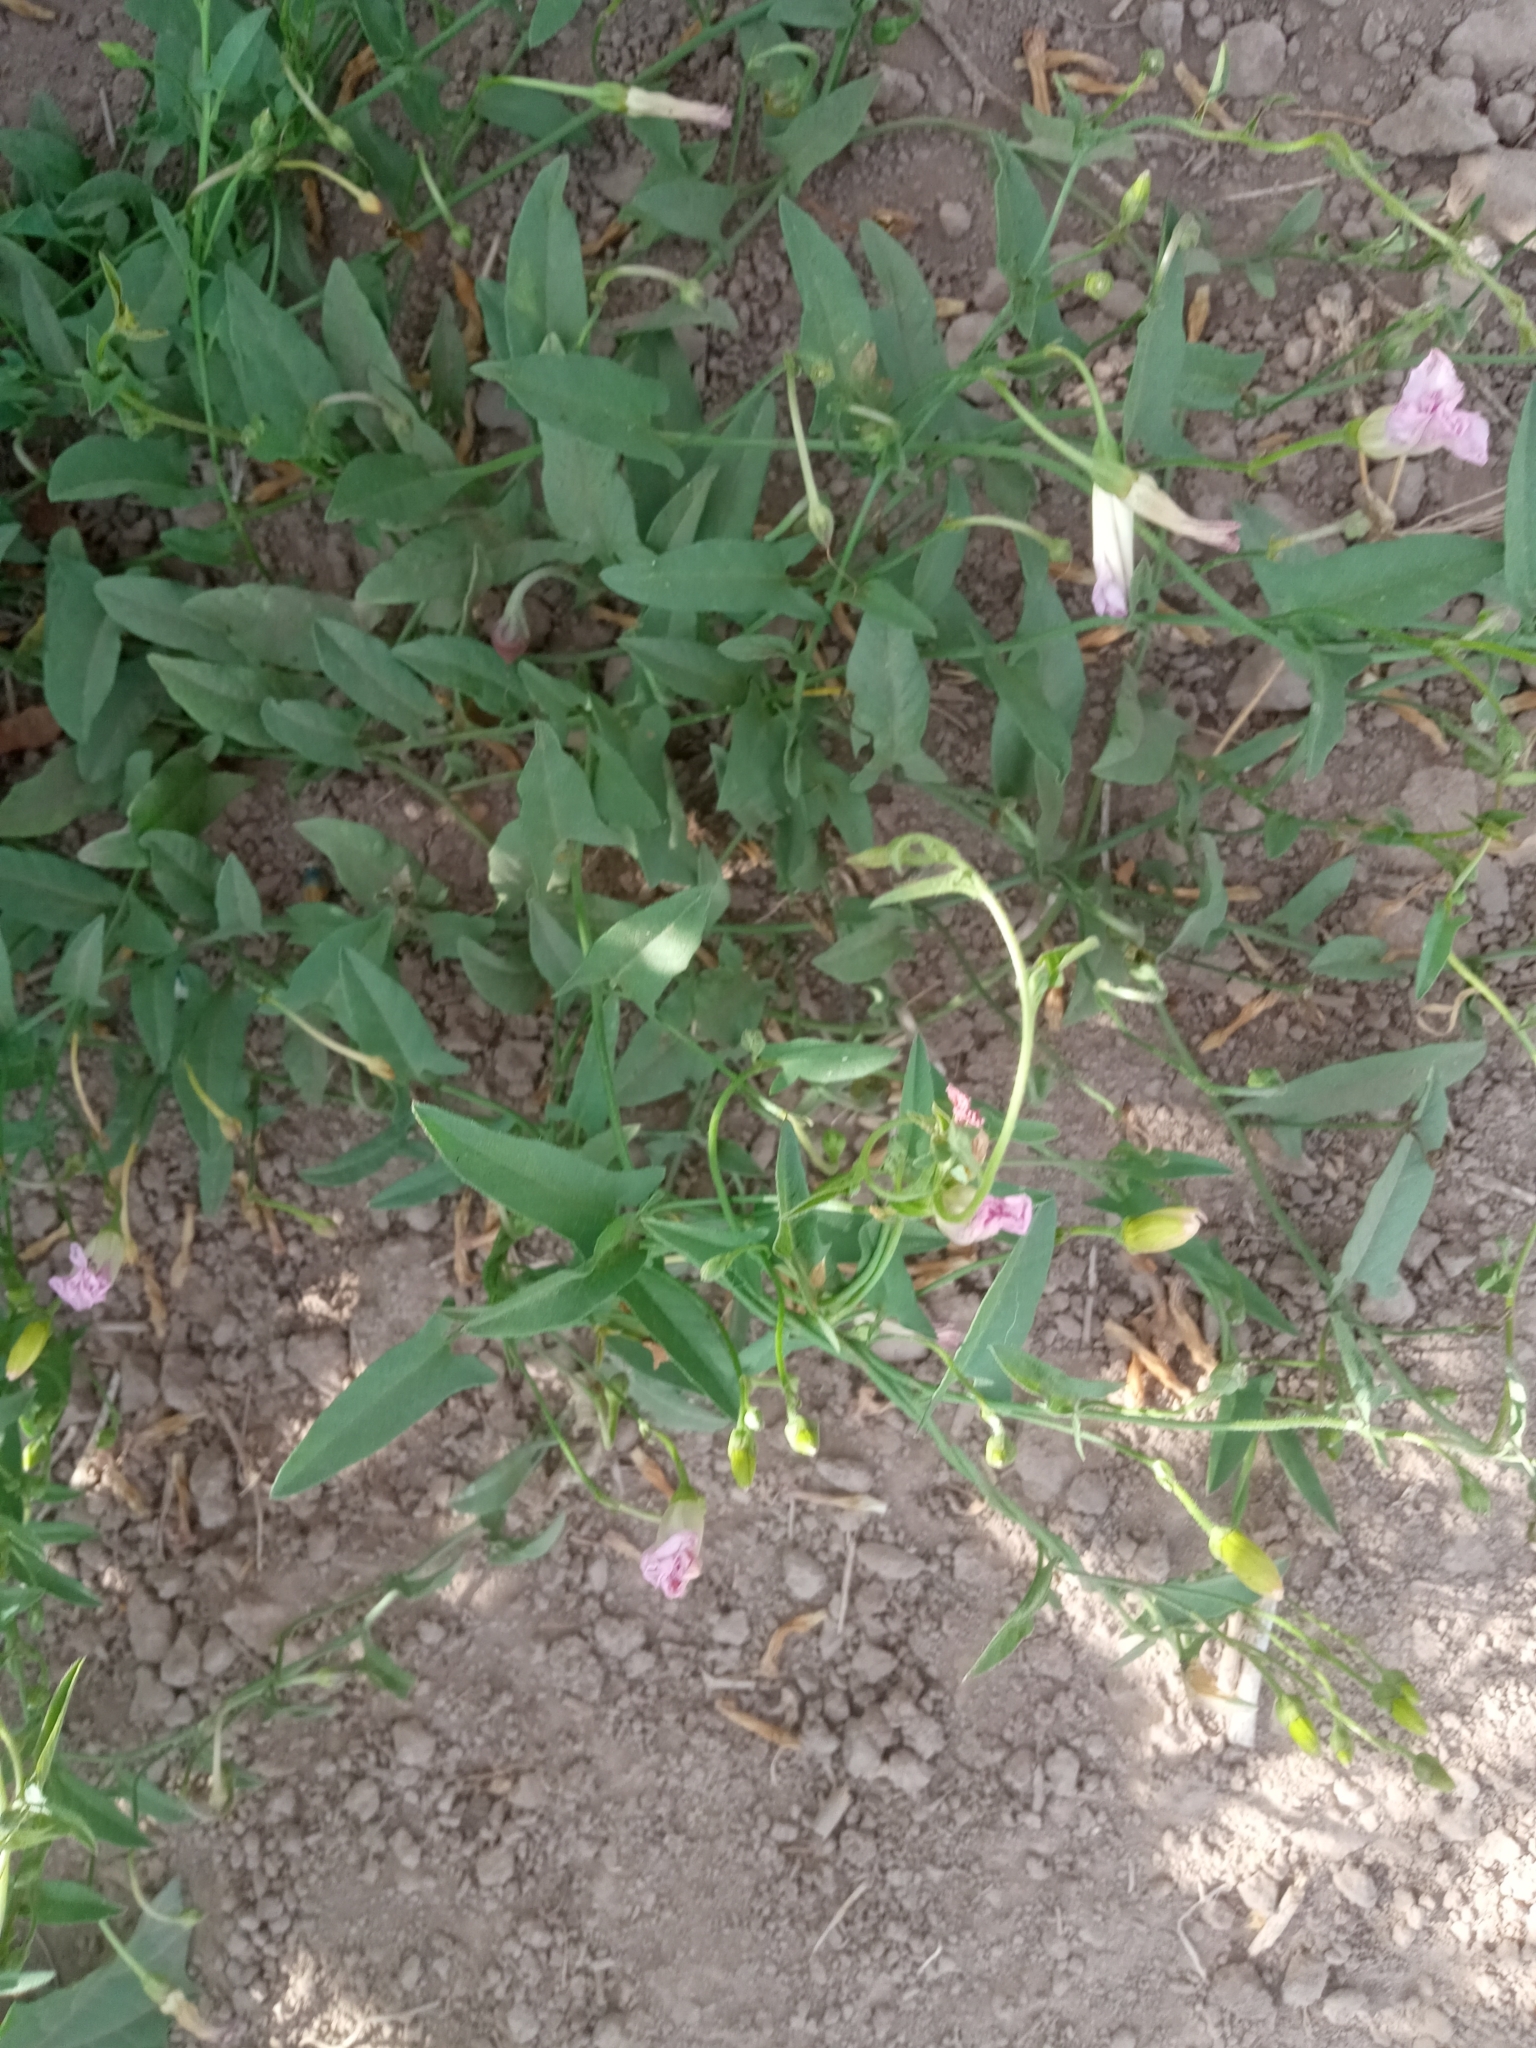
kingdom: Plantae
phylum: Tracheophyta
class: Magnoliopsida
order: Solanales
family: Convolvulaceae
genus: Convolvulus
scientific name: Convolvulus arvensis
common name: Field bindweed
